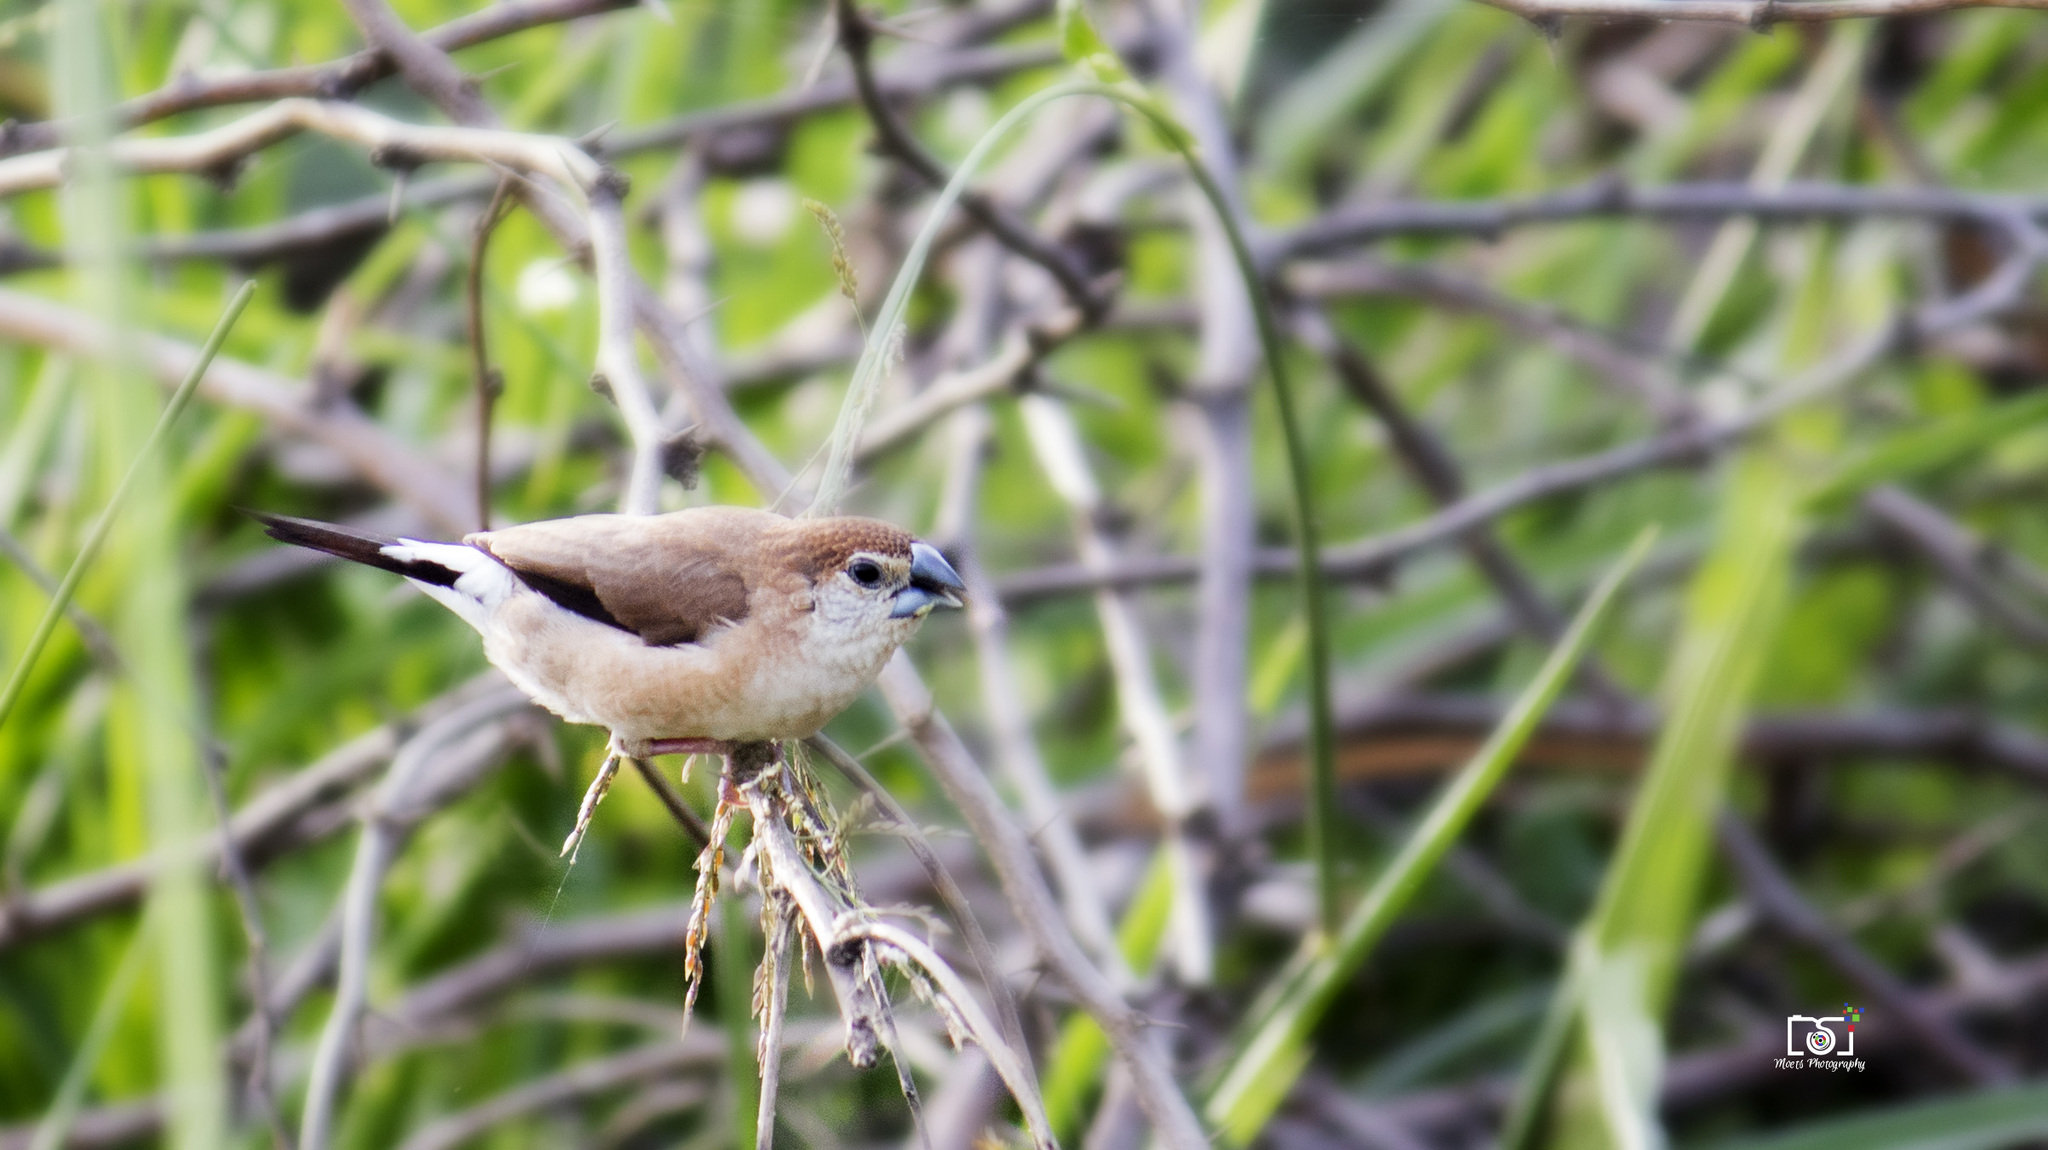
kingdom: Animalia
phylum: Chordata
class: Aves
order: Passeriformes
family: Estrildidae
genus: Euodice
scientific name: Euodice malabarica
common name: Indian silverbill
